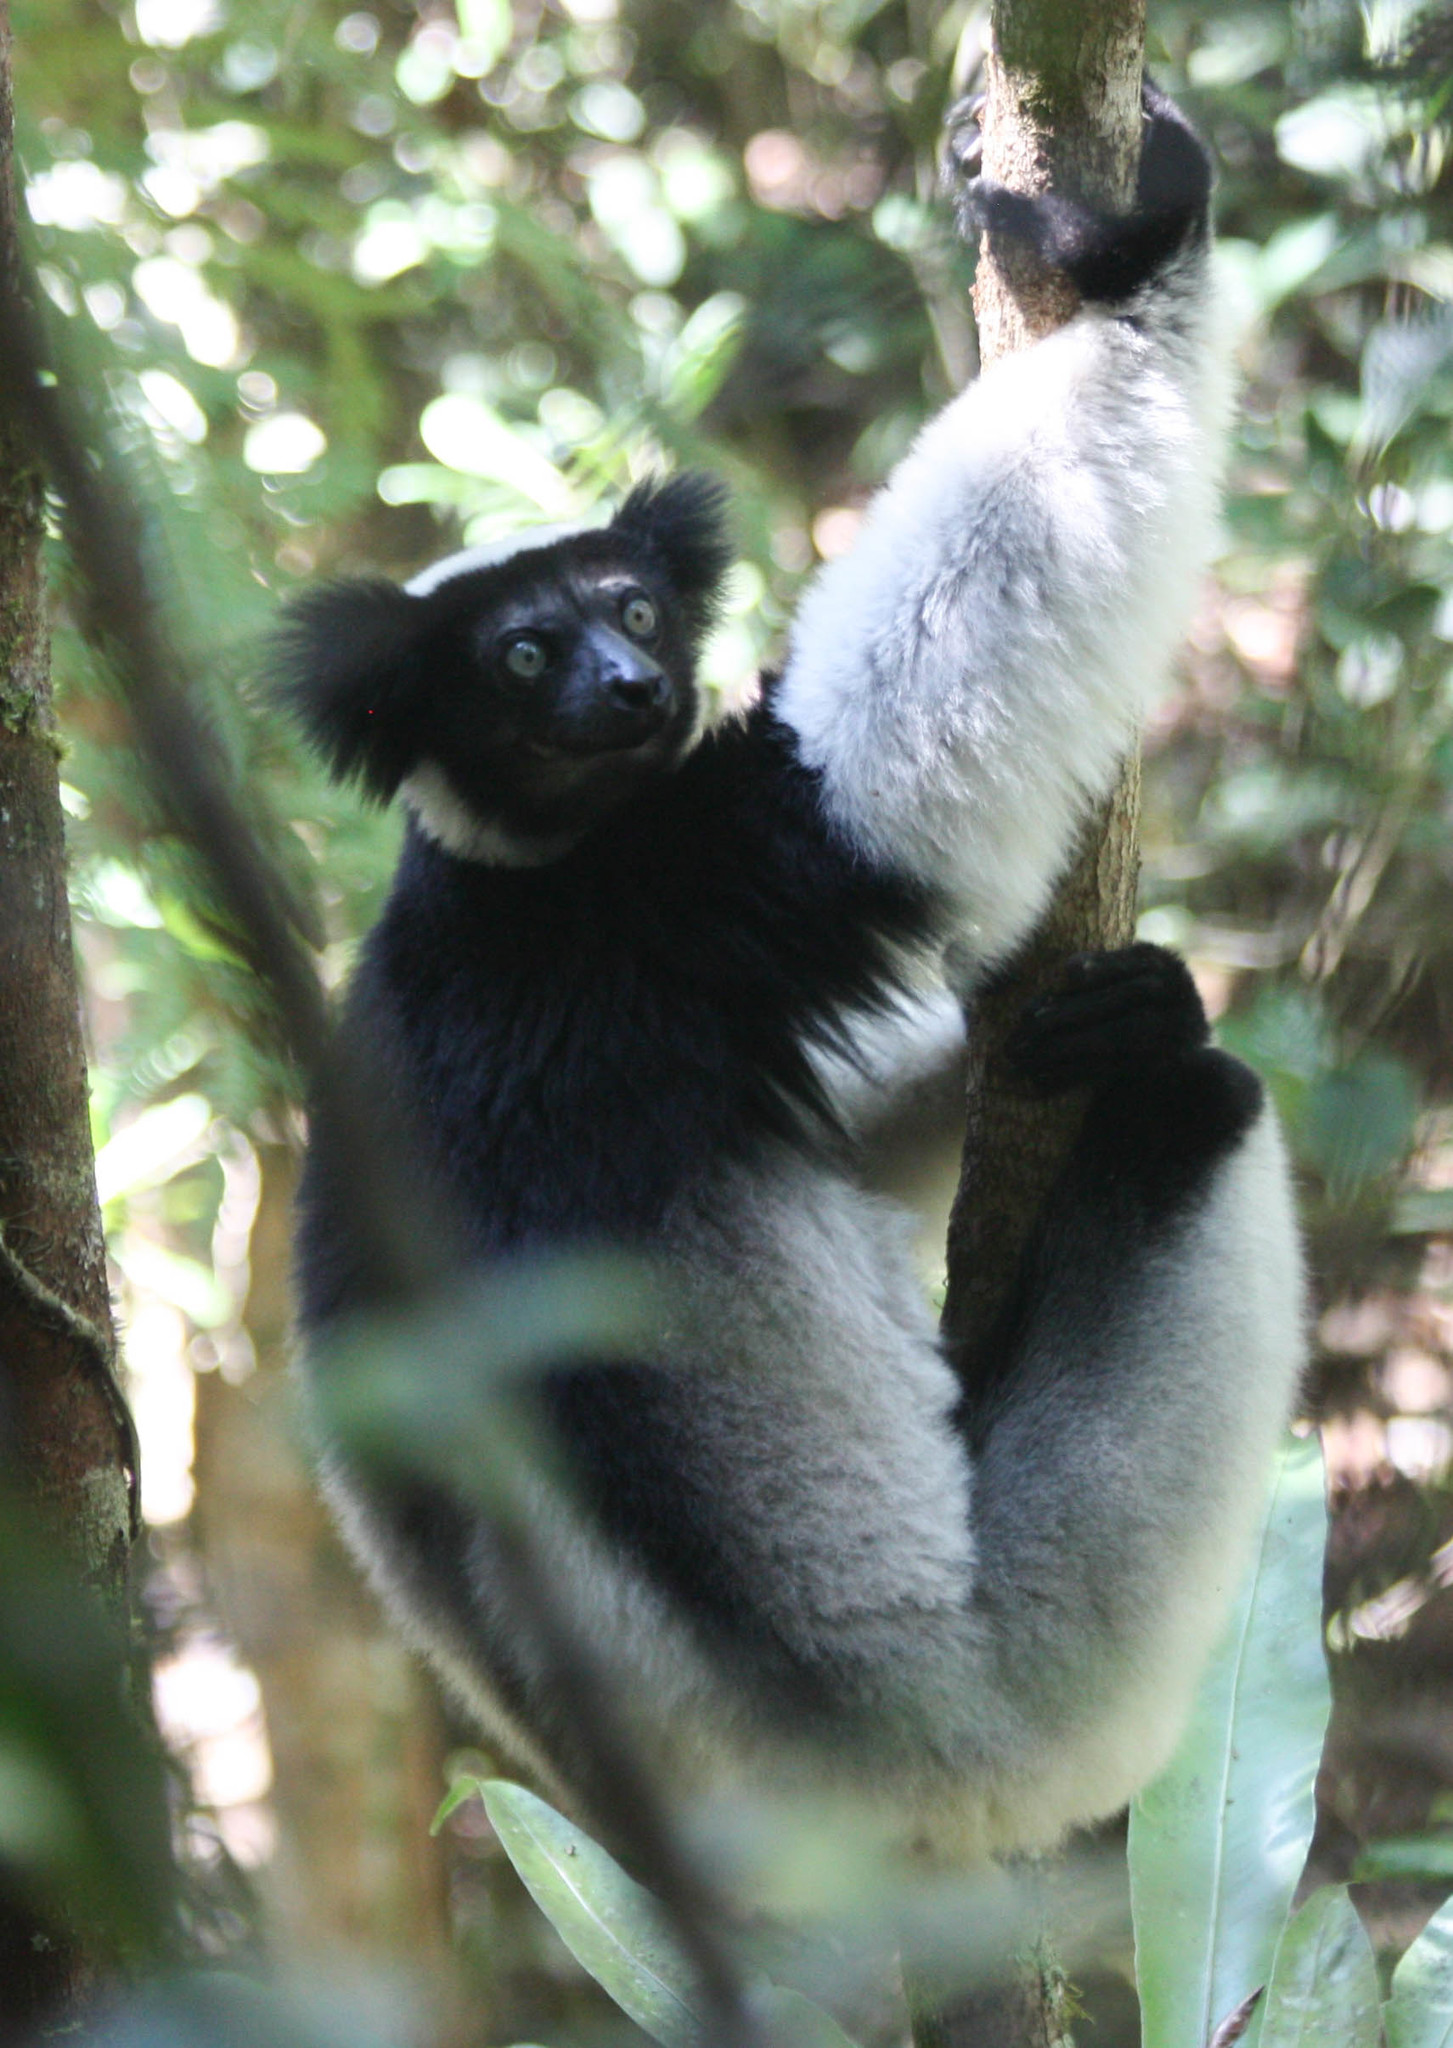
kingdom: Animalia
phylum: Chordata
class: Mammalia
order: Primates
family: Indriidae
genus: Indri
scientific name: Indri indri
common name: Indri
